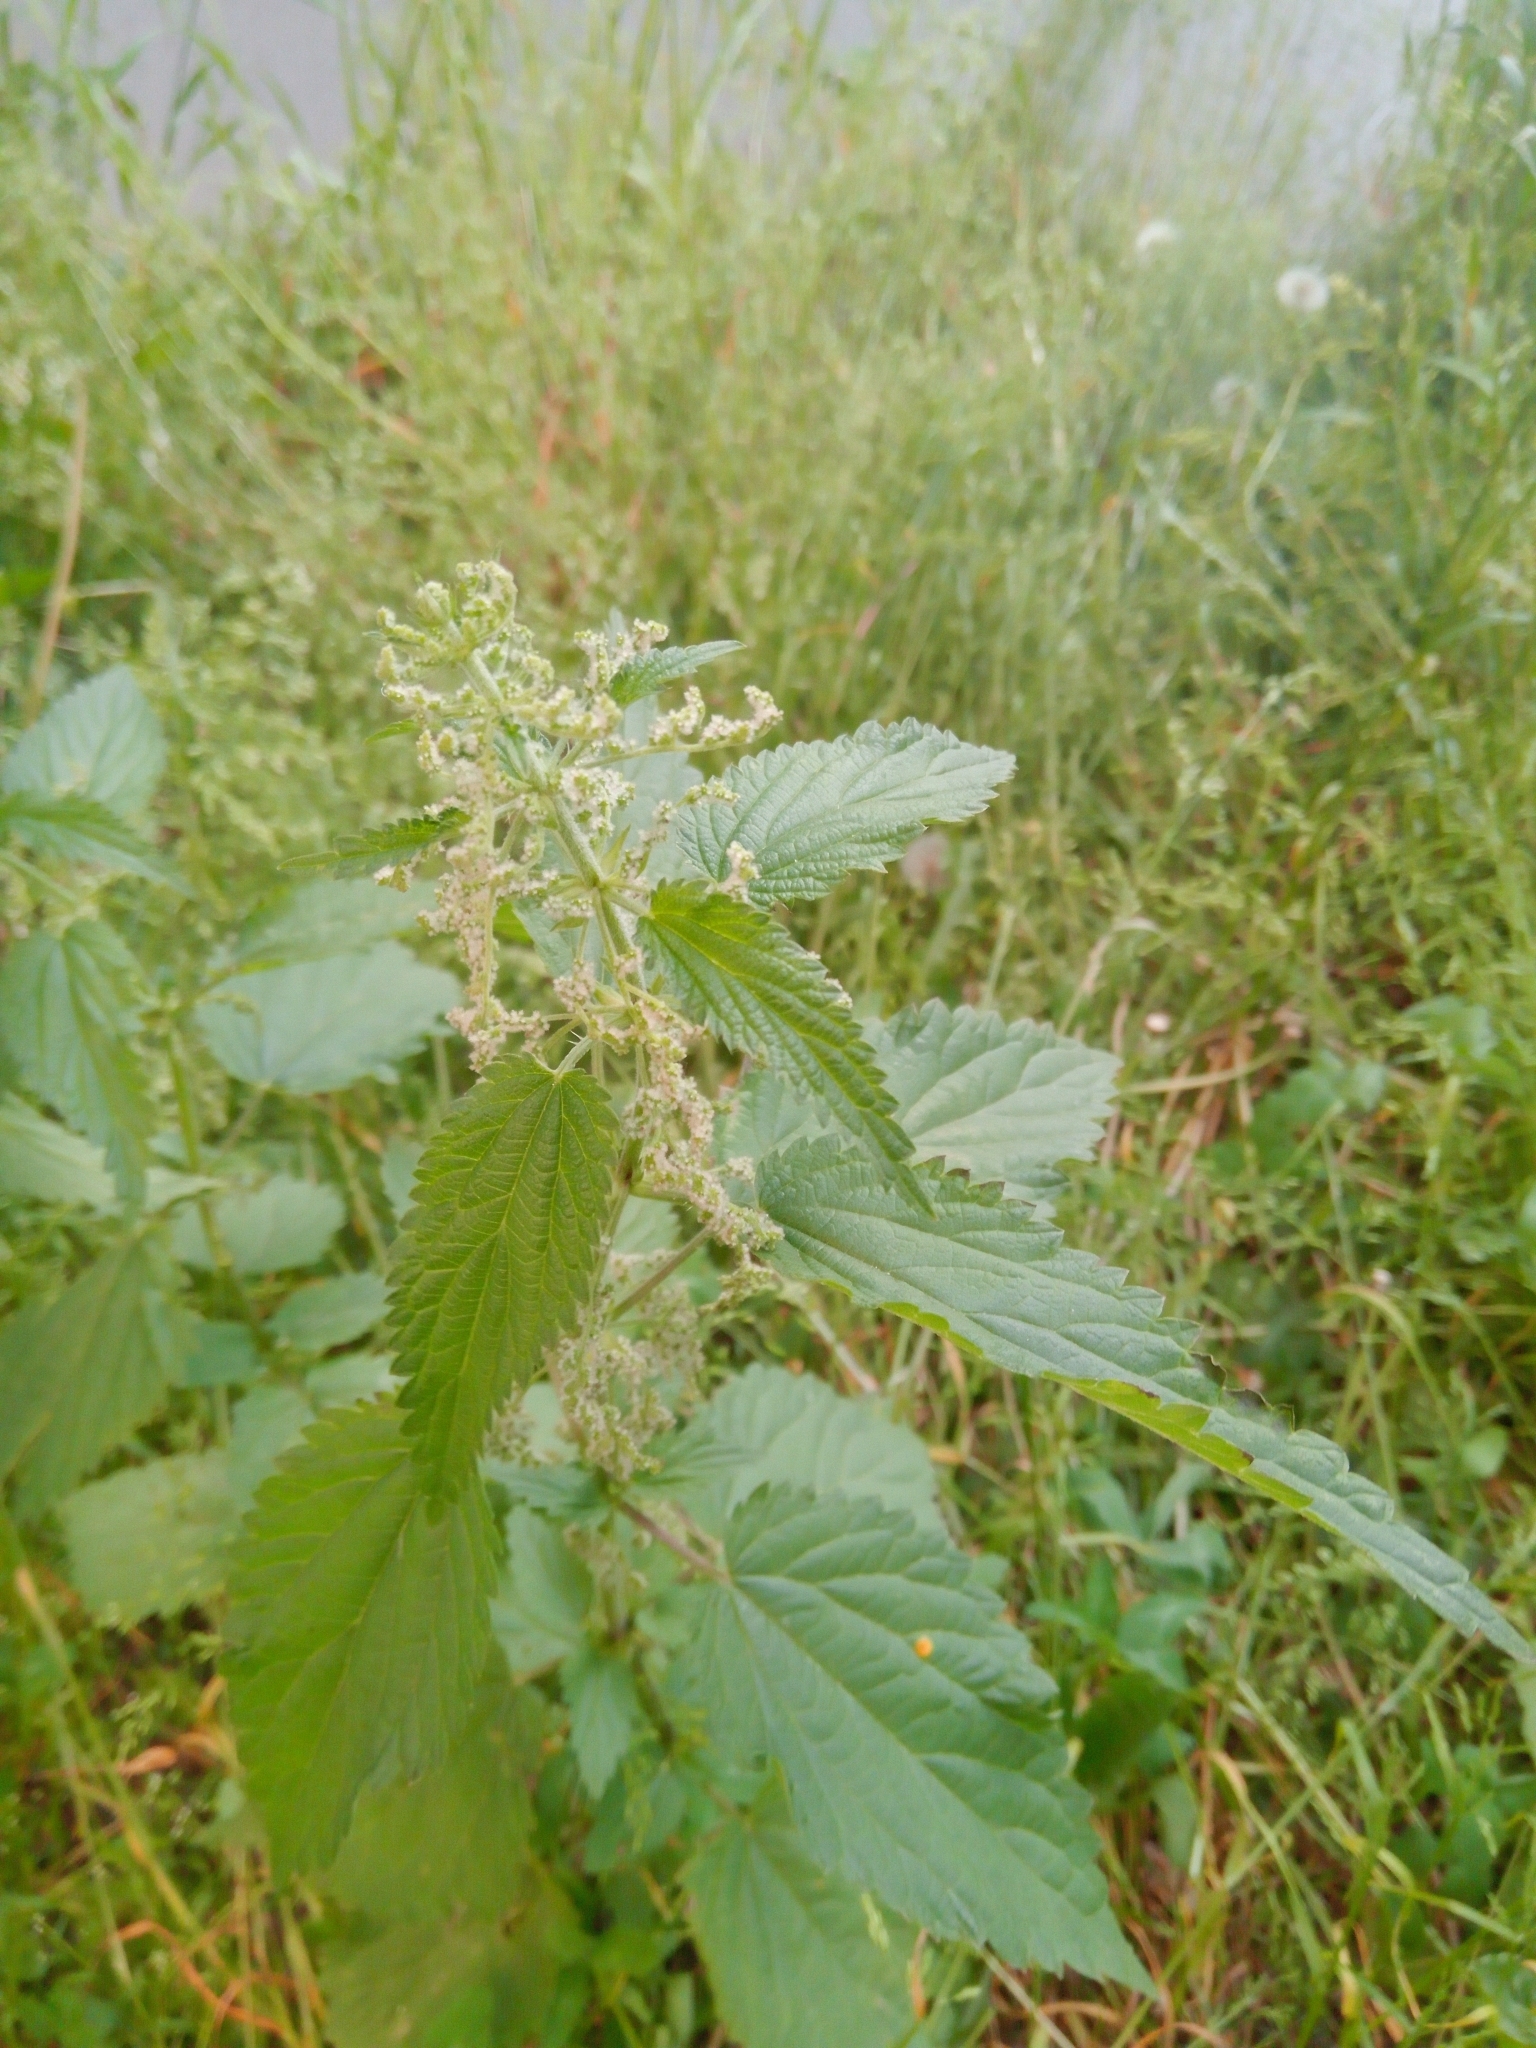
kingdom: Plantae
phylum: Tracheophyta
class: Magnoliopsida
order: Rosales
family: Urticaceae
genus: Urtica
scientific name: Urtica dioica
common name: Common nettle
